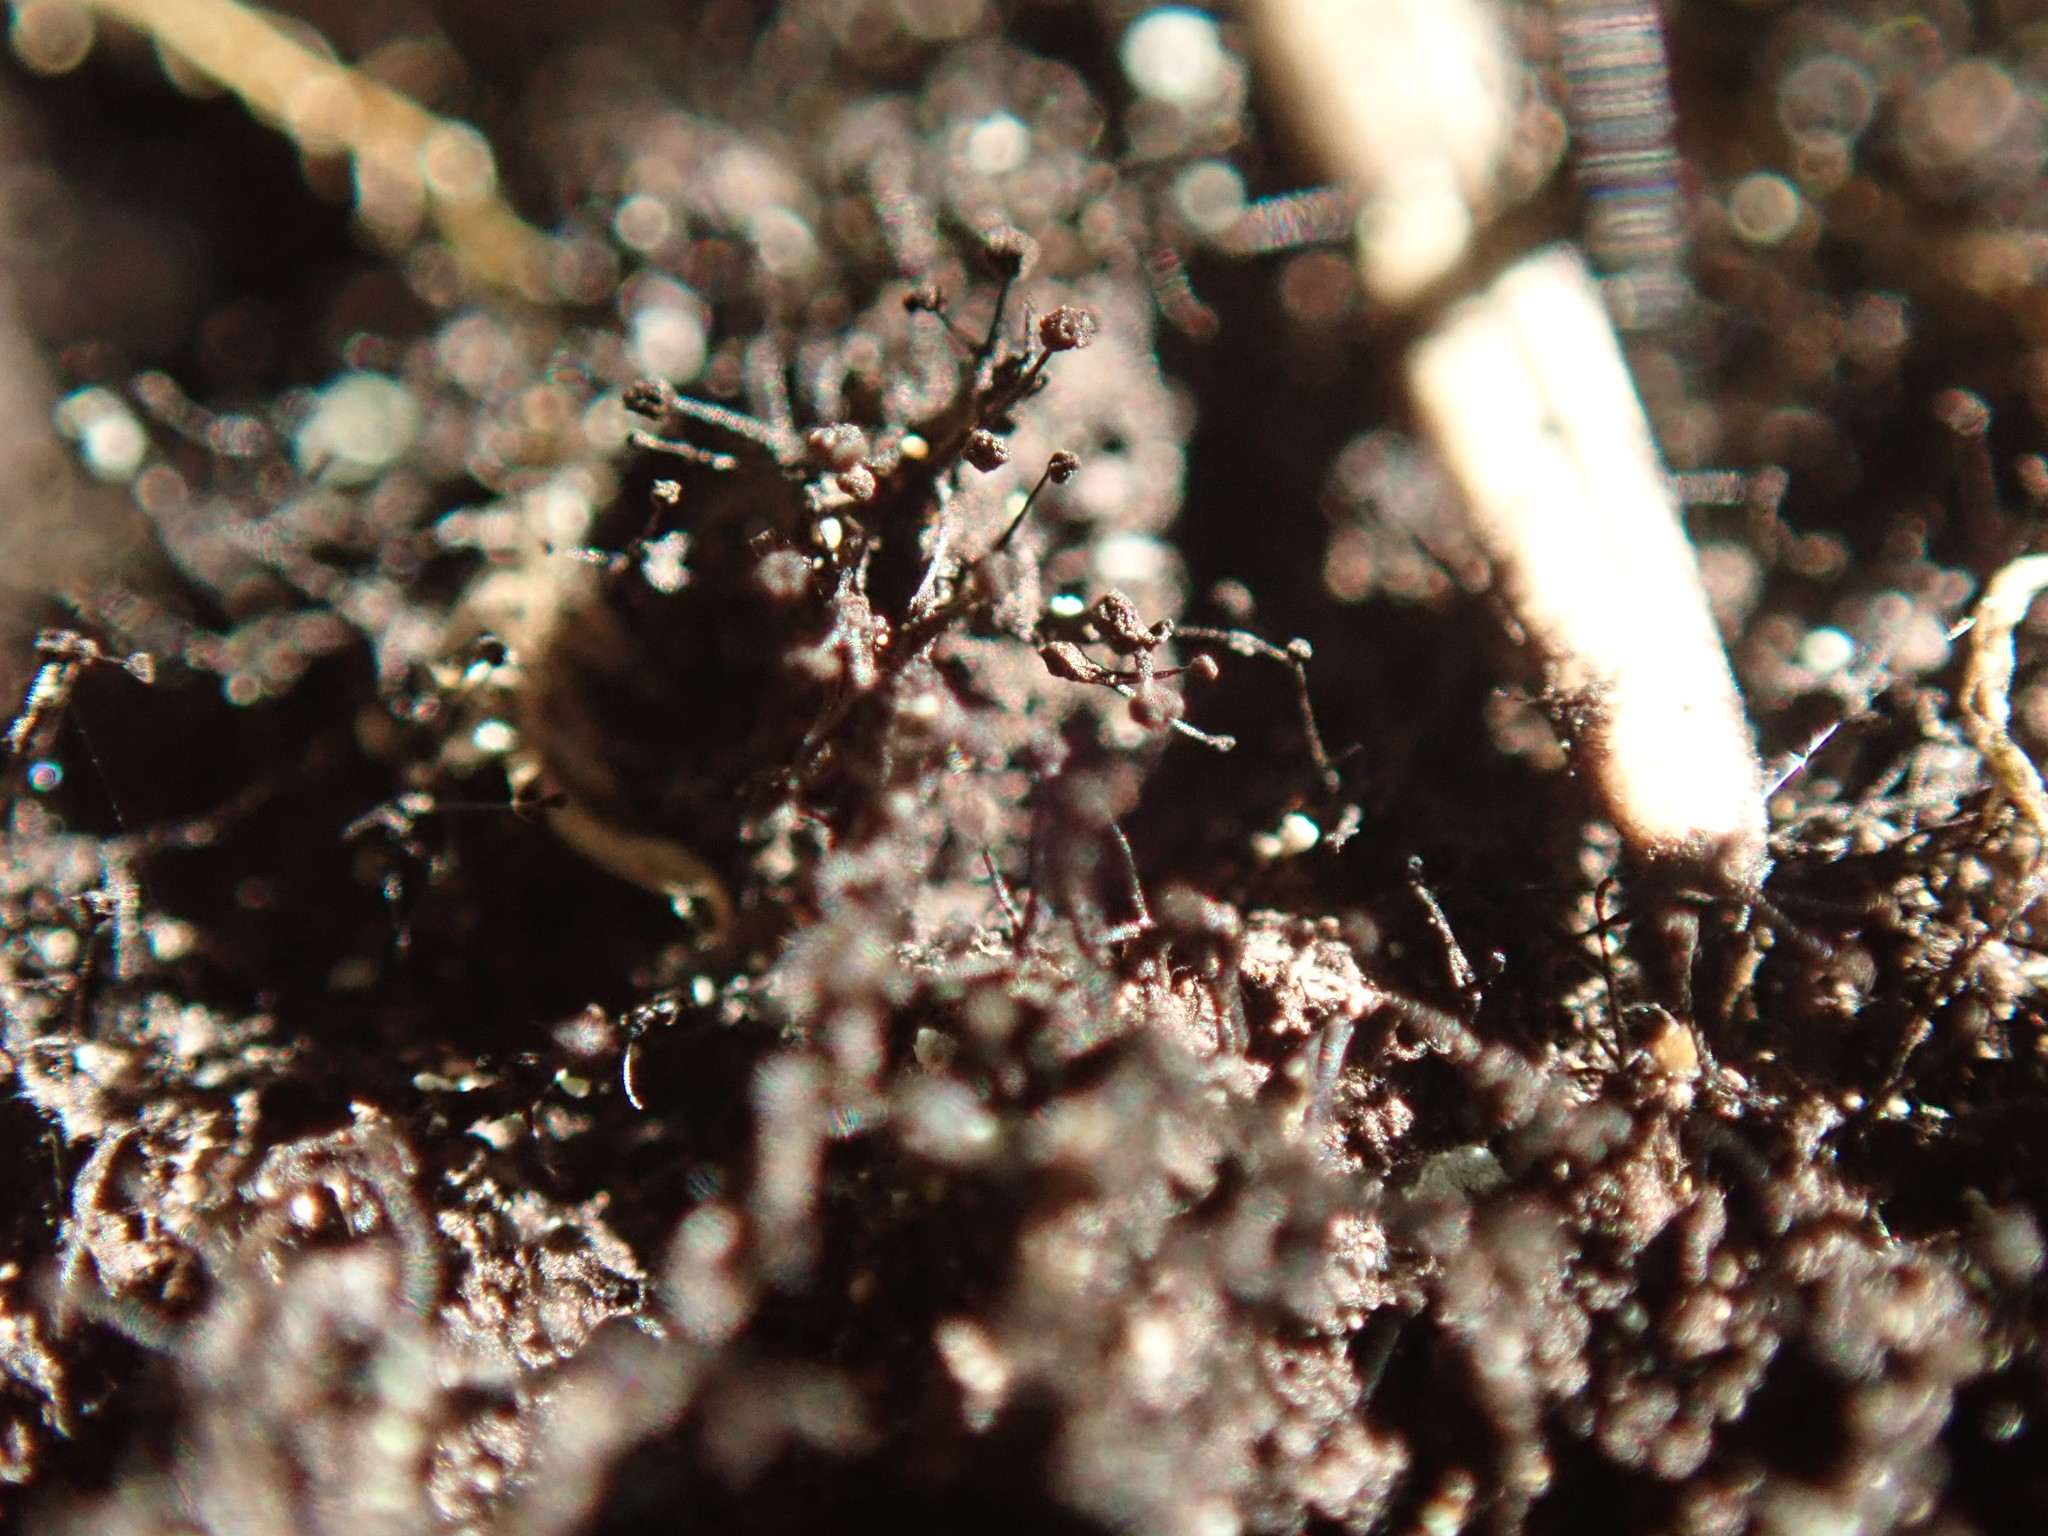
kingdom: Fungi
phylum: Ascomycota
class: Leotiomycetes
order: Helotiales
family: Amorphothecaceae
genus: Sorocybe
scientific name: Sorocybe resinae
